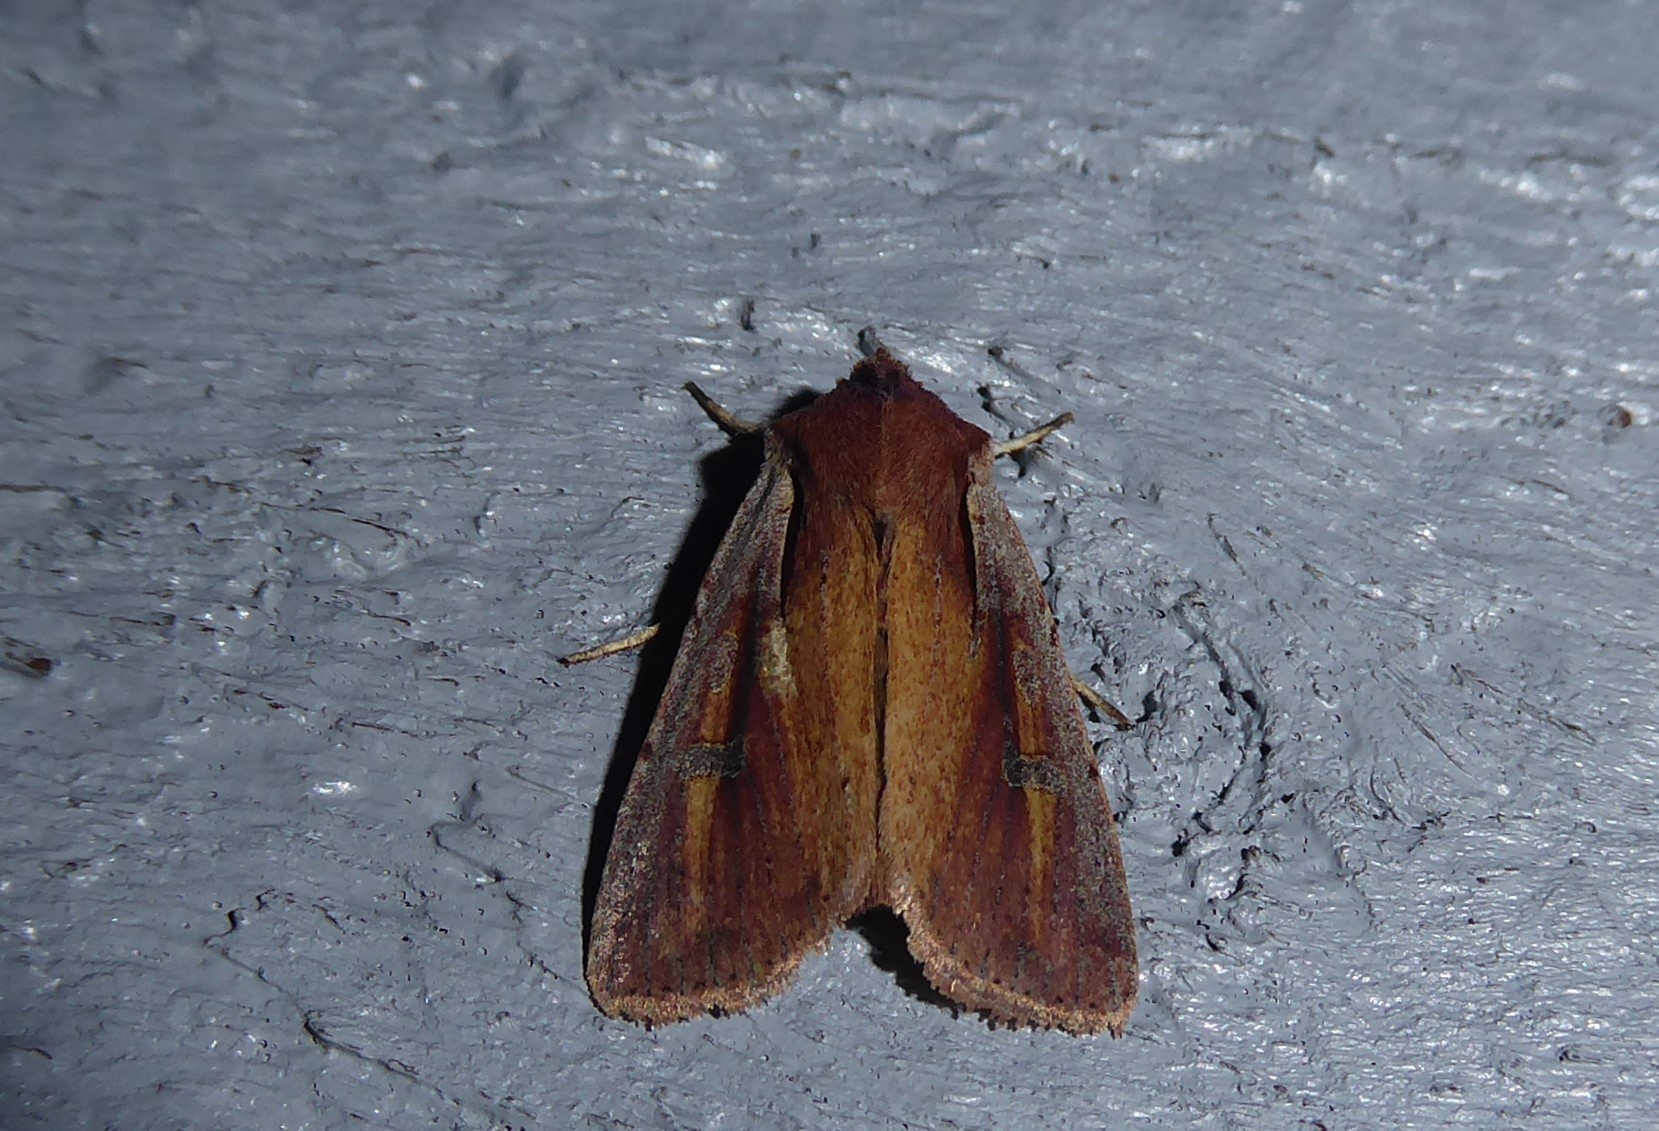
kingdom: Animalia
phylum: Arthropoda
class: Insecta
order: Lepidoptera
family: Noctuidae
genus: Ichneutica
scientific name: Ichneutica atristriga
